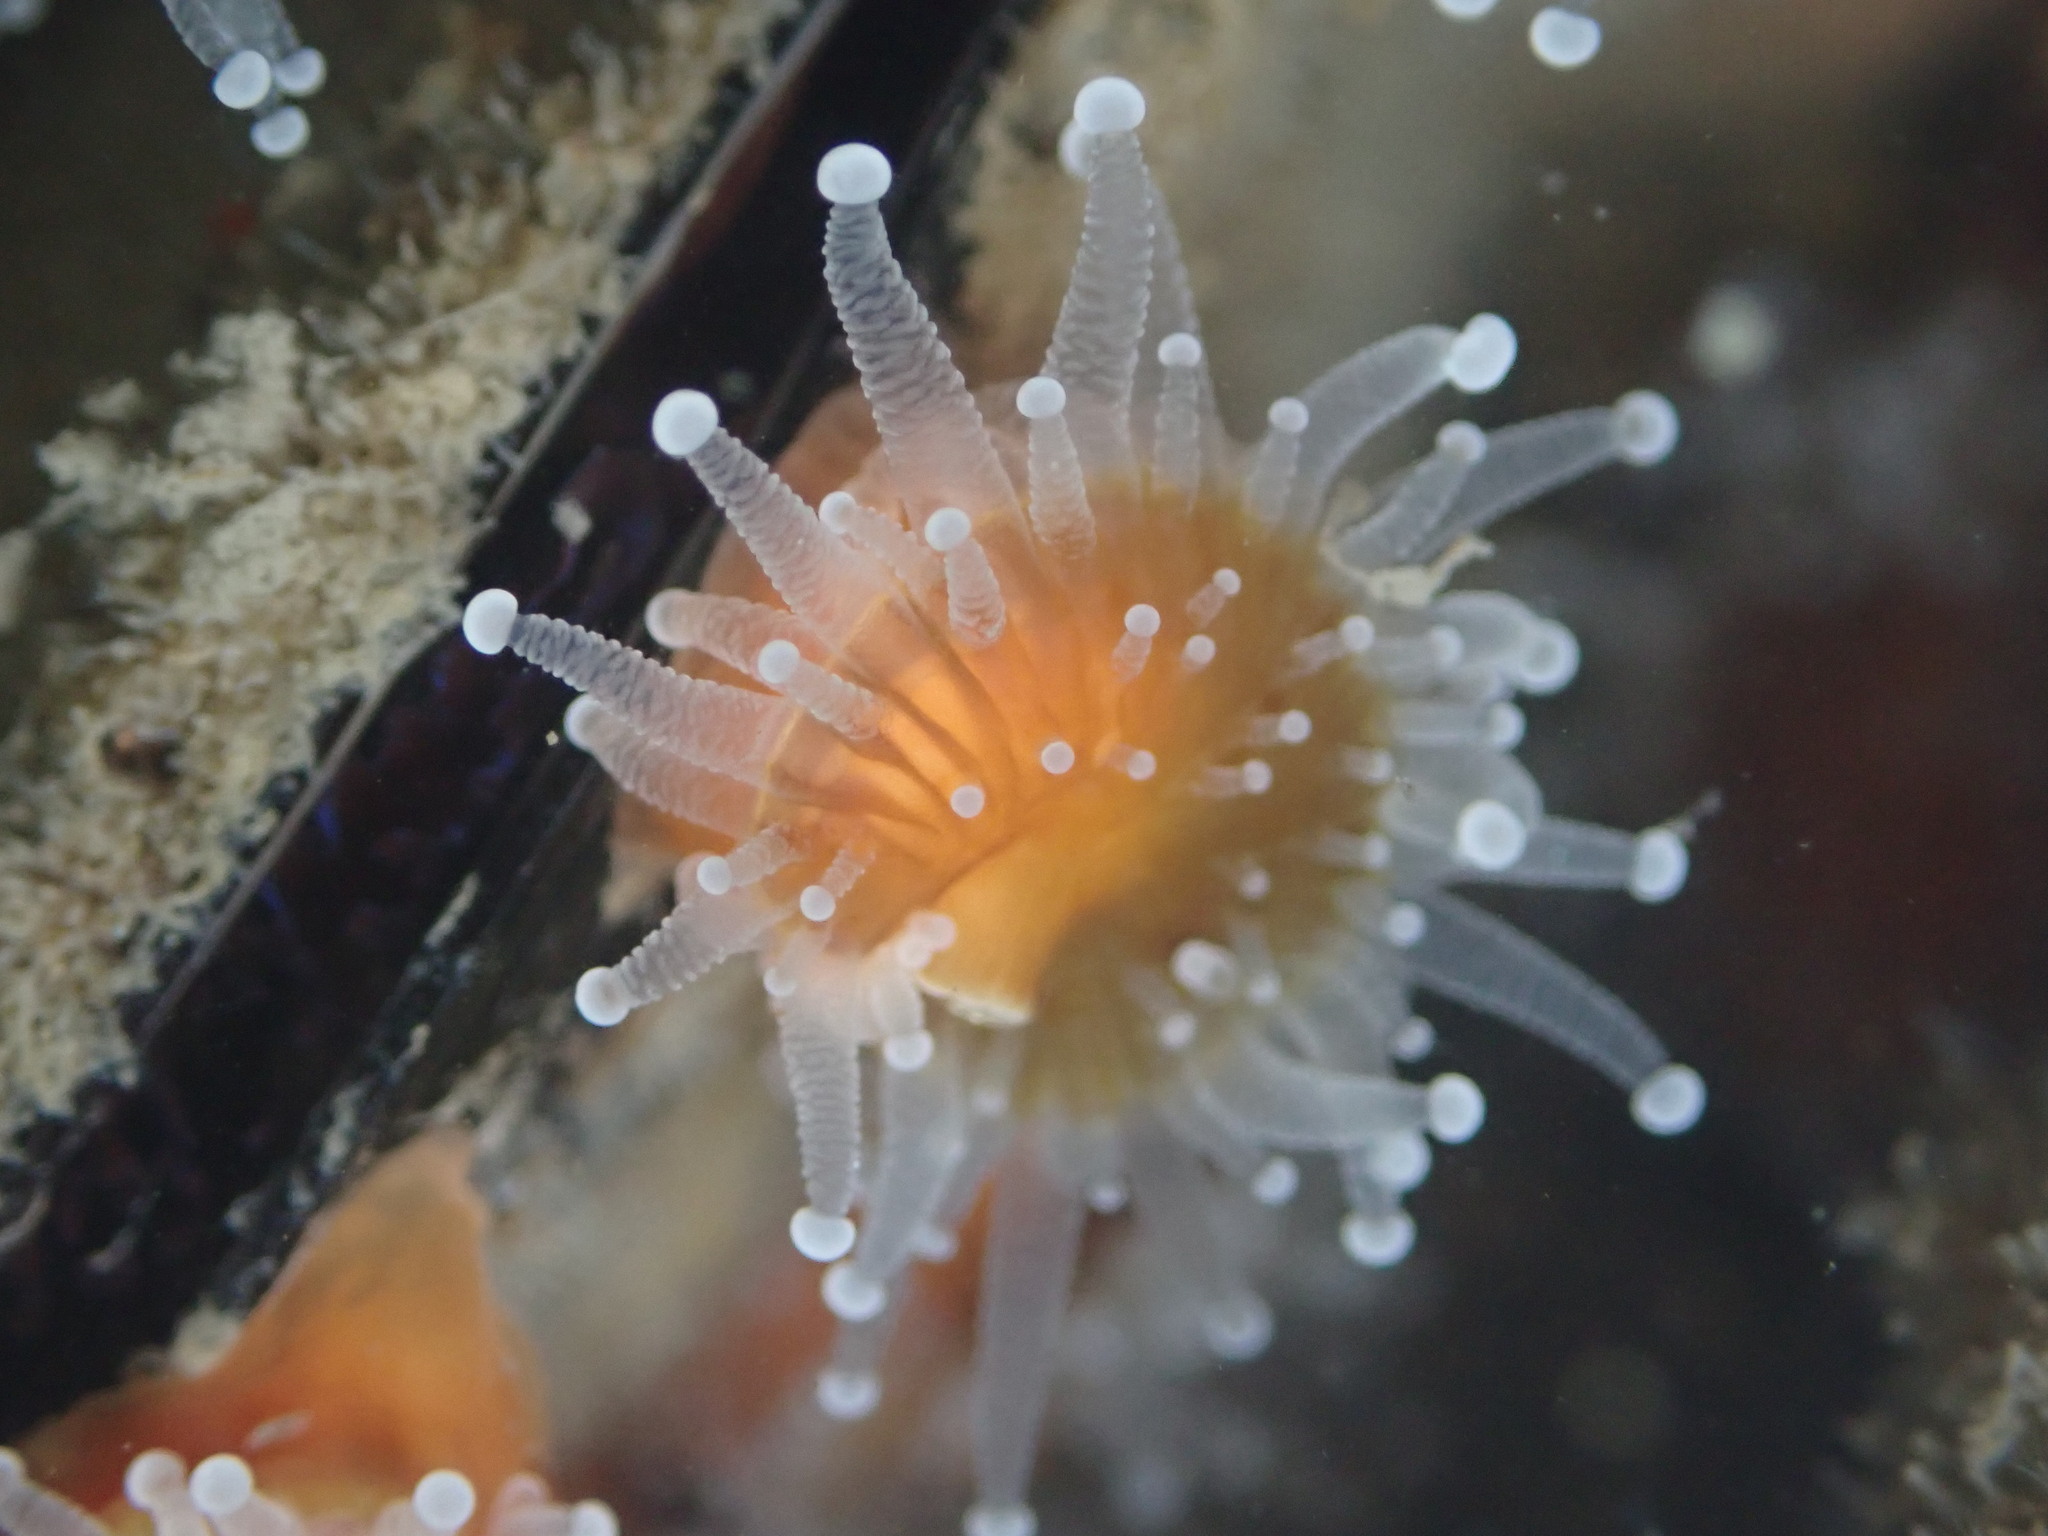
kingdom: Animalia
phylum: Cnidaria
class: Anthozoa
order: Corallimorpharia
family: Corallimorphidae
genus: Corynactis
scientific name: Corynactis californica
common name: Strawberry corallimorpharian
